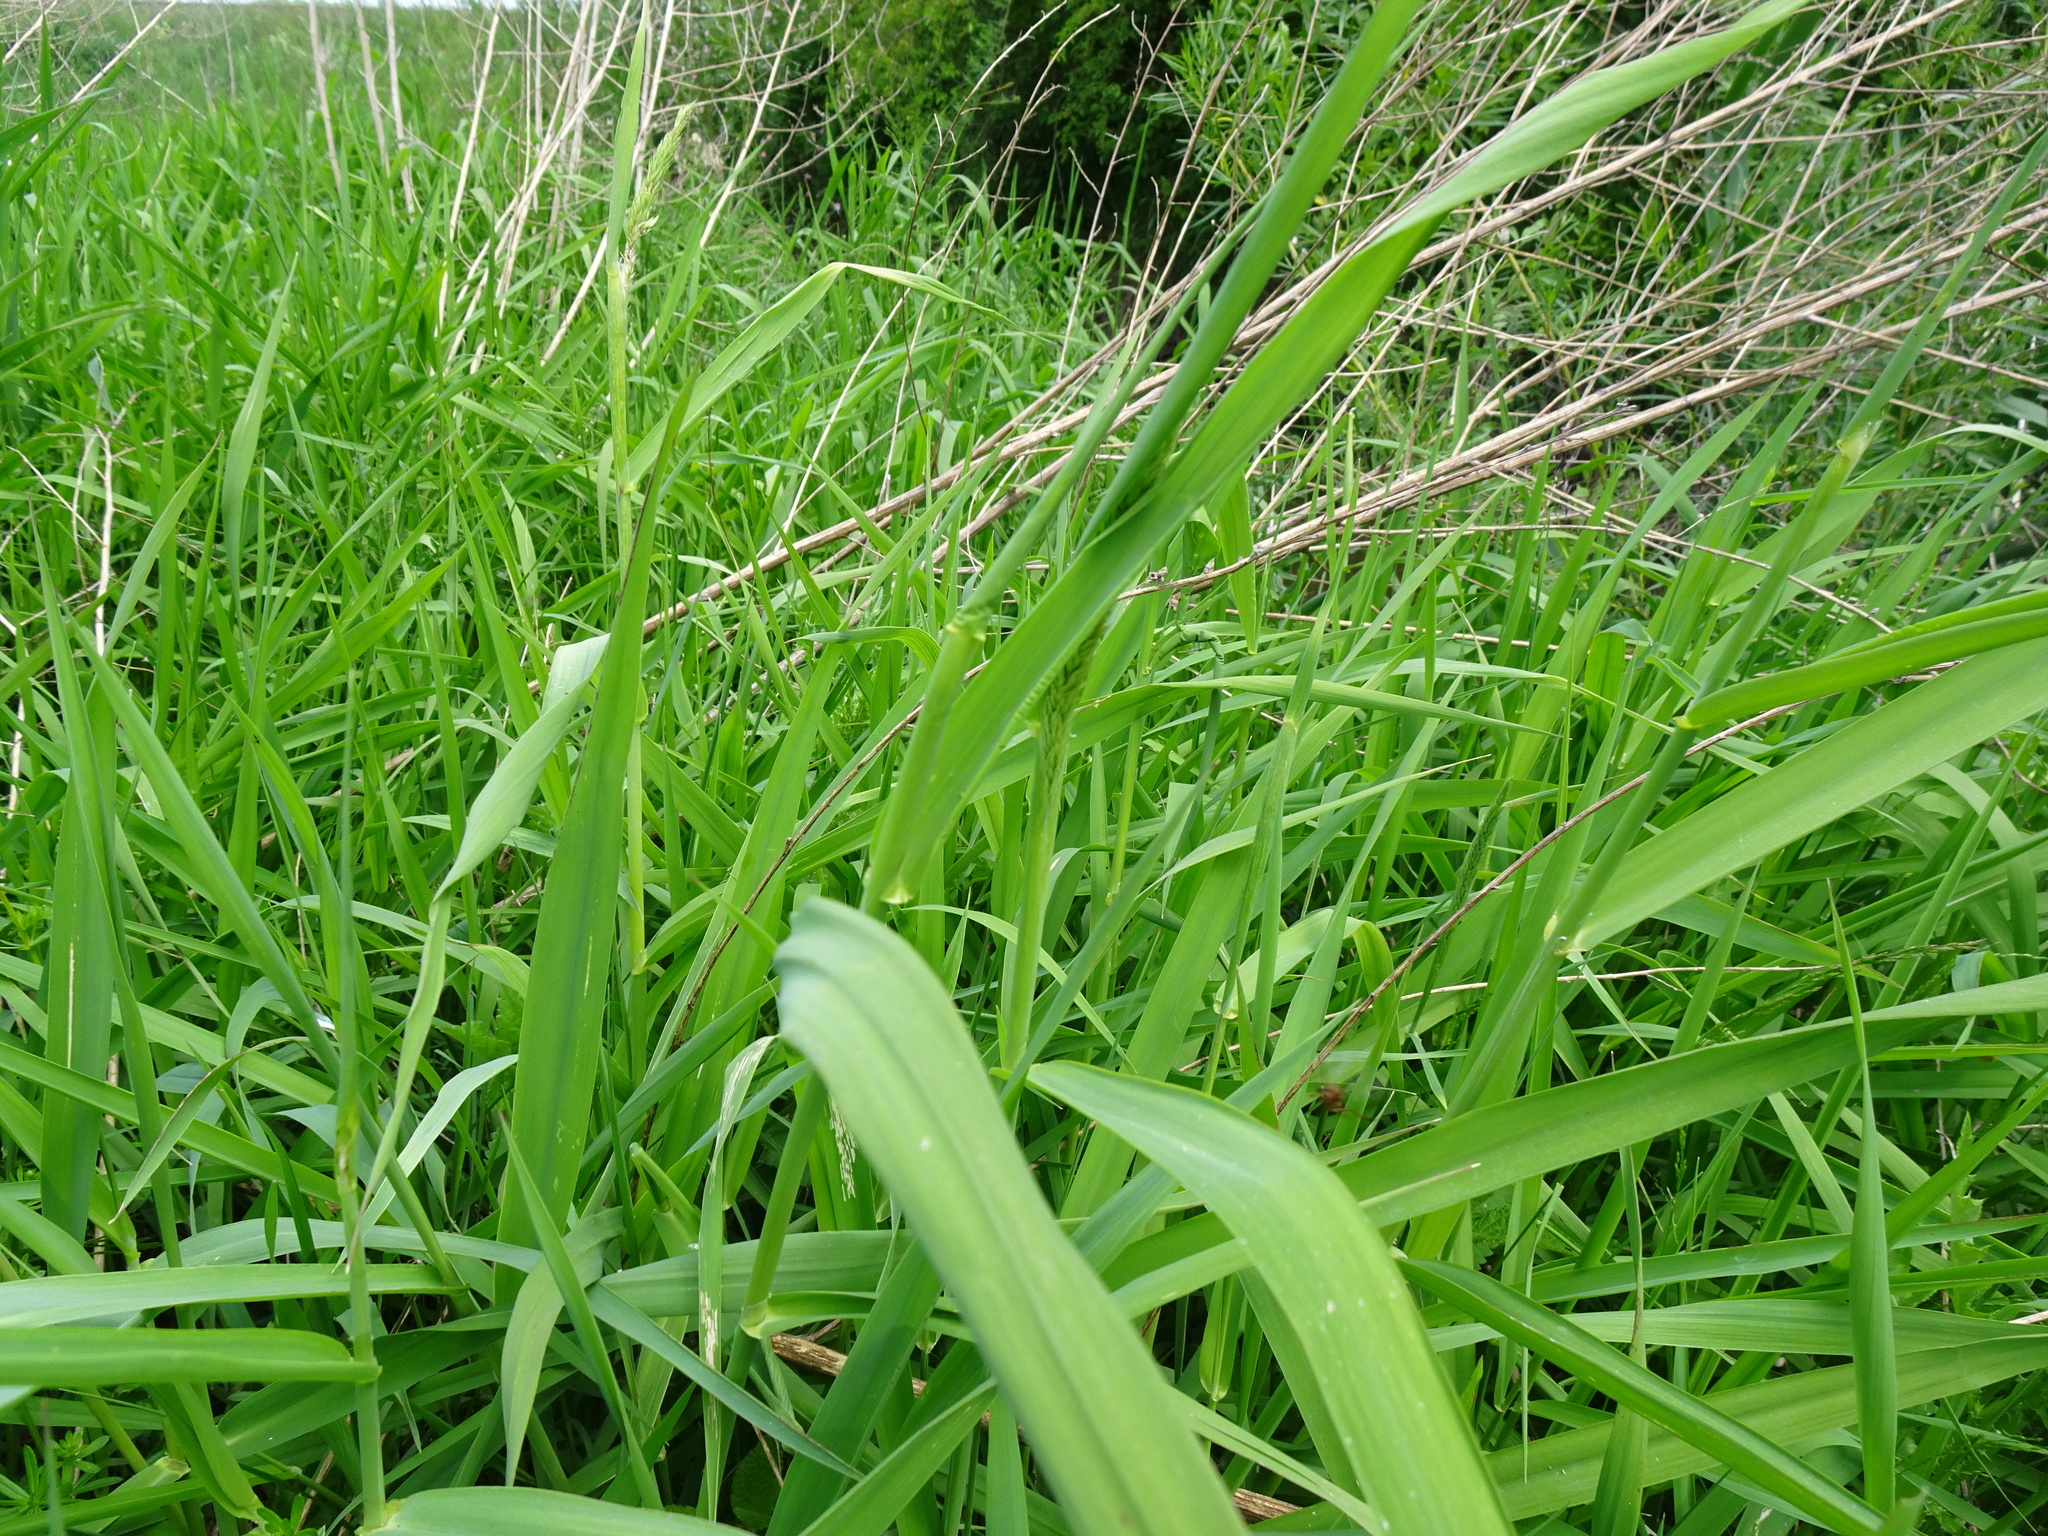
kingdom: Plantae
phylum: Tracheophyta
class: Liliopsida
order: Poales
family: Poaceae
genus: Phalaris
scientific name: Phalaris arundinacea
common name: Reed canary-grass
